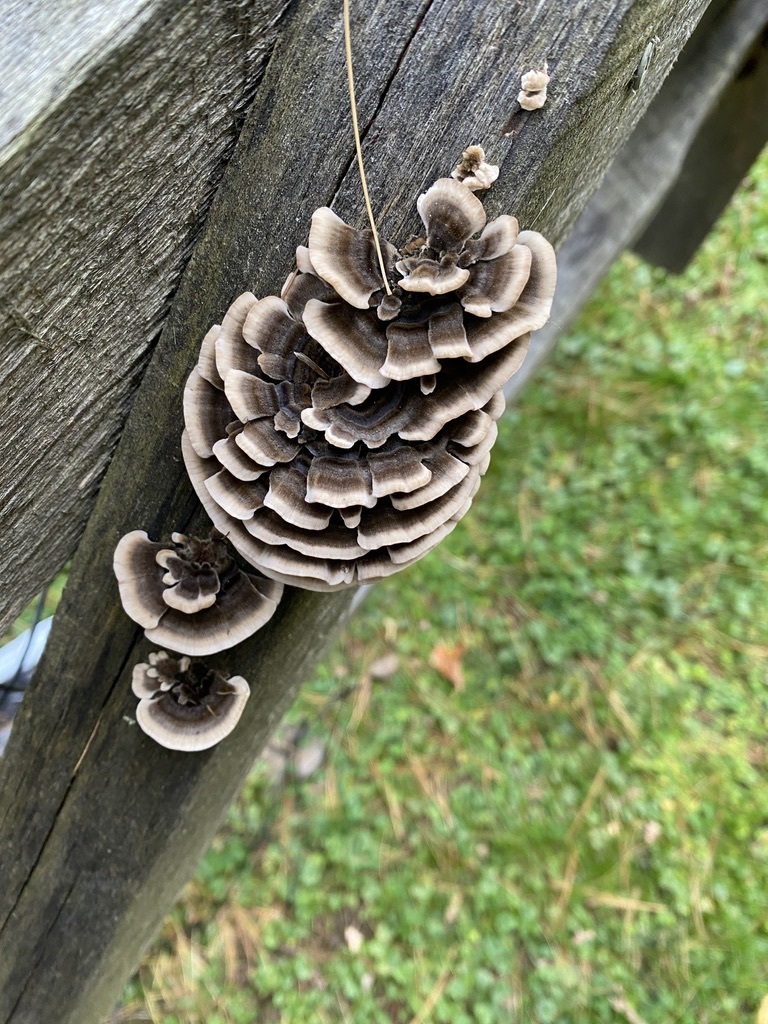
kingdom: Fungi
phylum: Basidiomycota
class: Agaricomycetes
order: Polyporales
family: Polyporaceae
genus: Trametes
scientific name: Trametes versicolor
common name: Turkeytail
